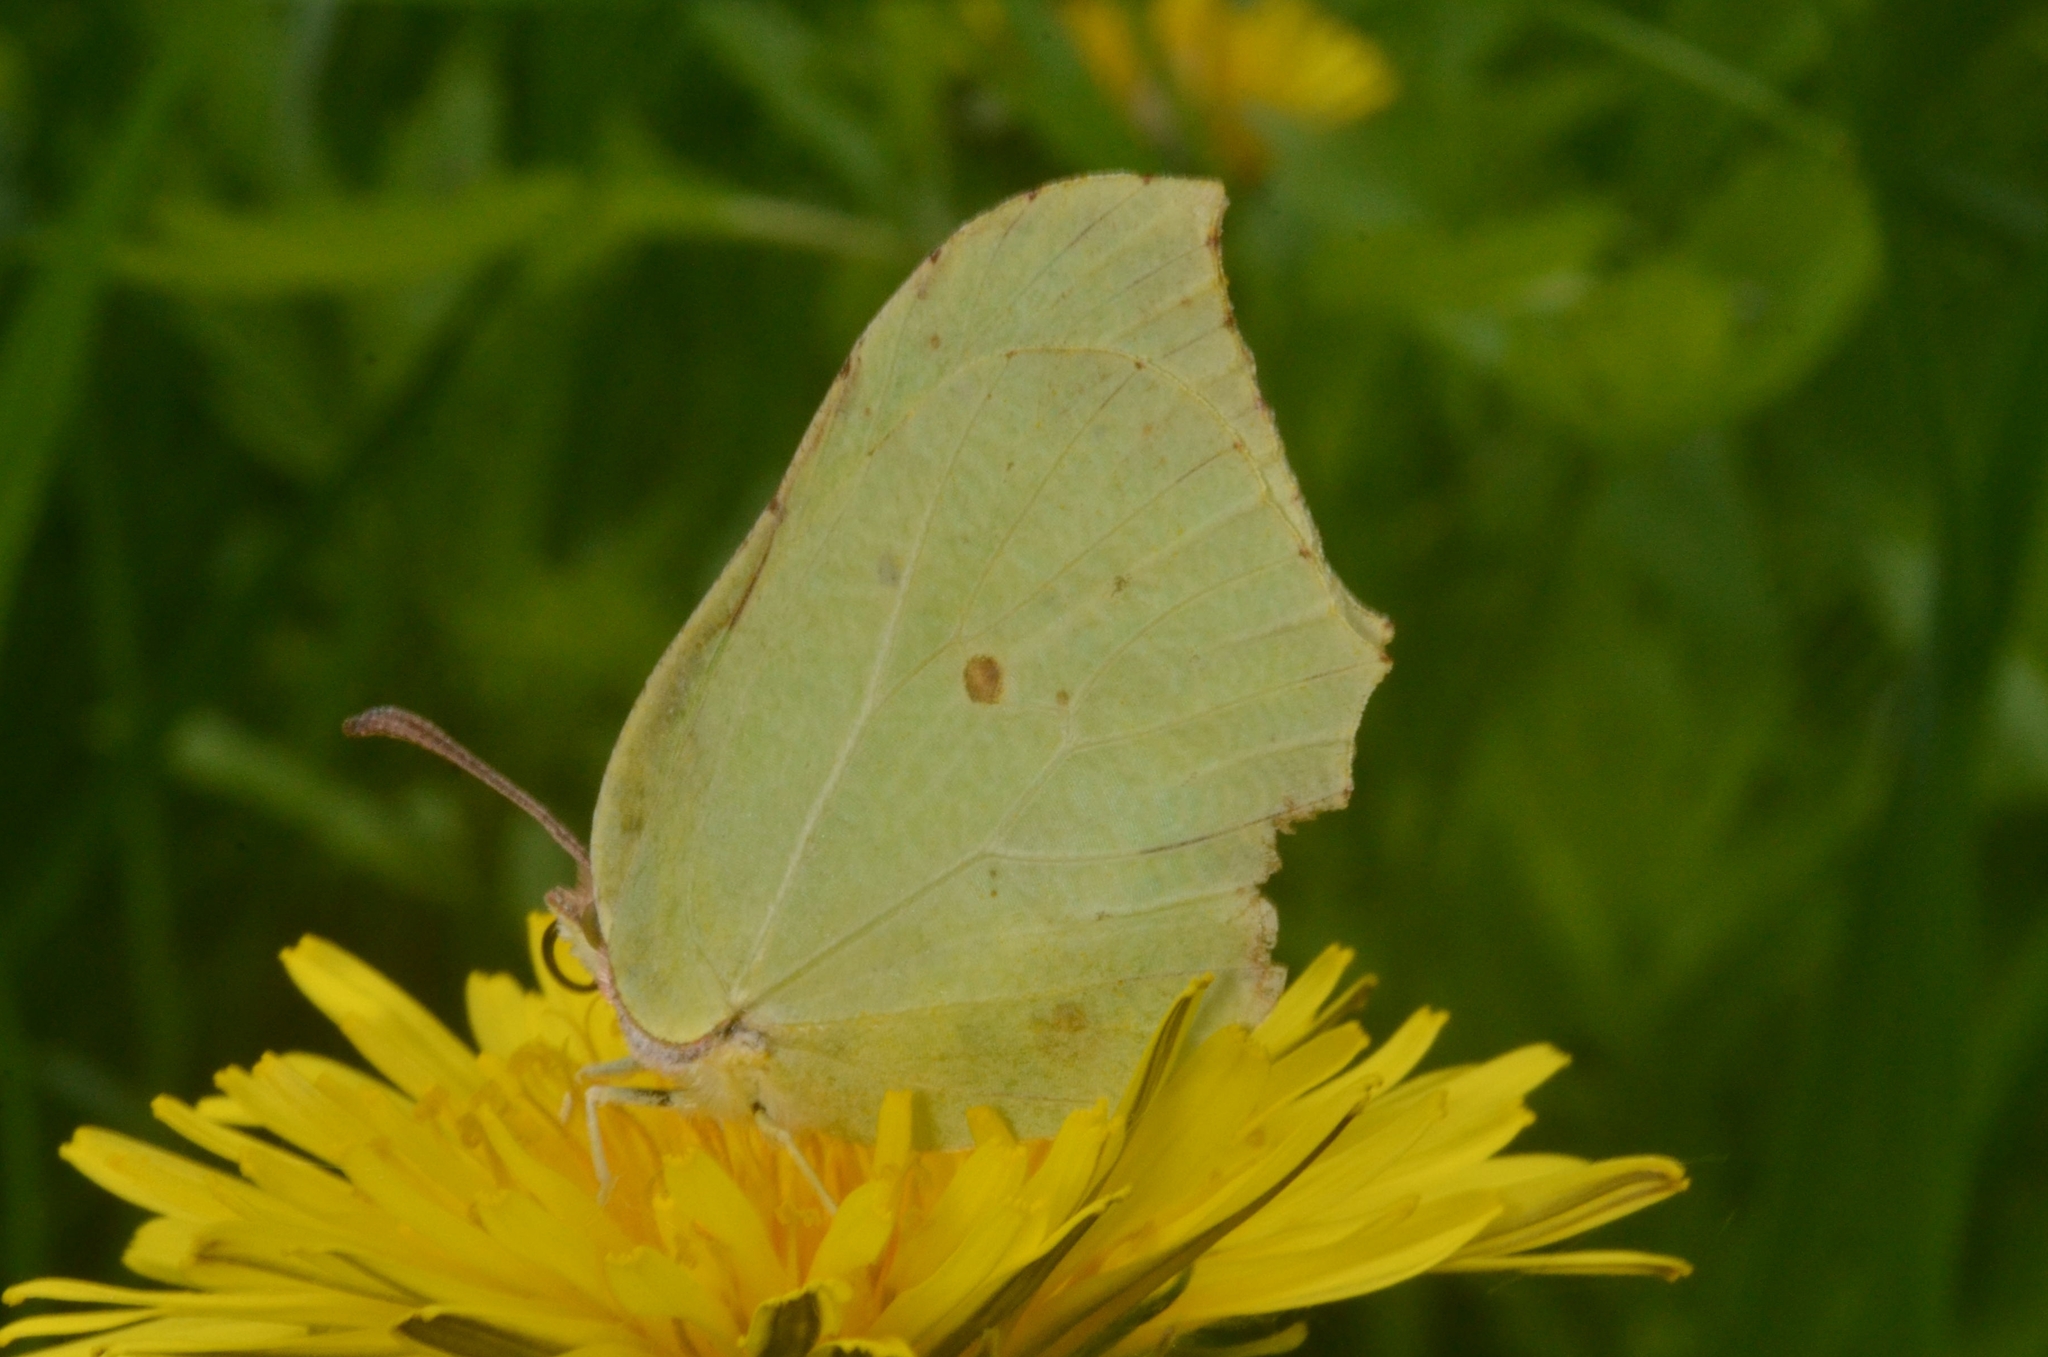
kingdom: Animalia
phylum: Arthropoda
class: Insecta
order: Lepidoptera
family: Pieridae
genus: Gonepteryx
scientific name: Gonepteryx rhamni
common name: Brimstone
